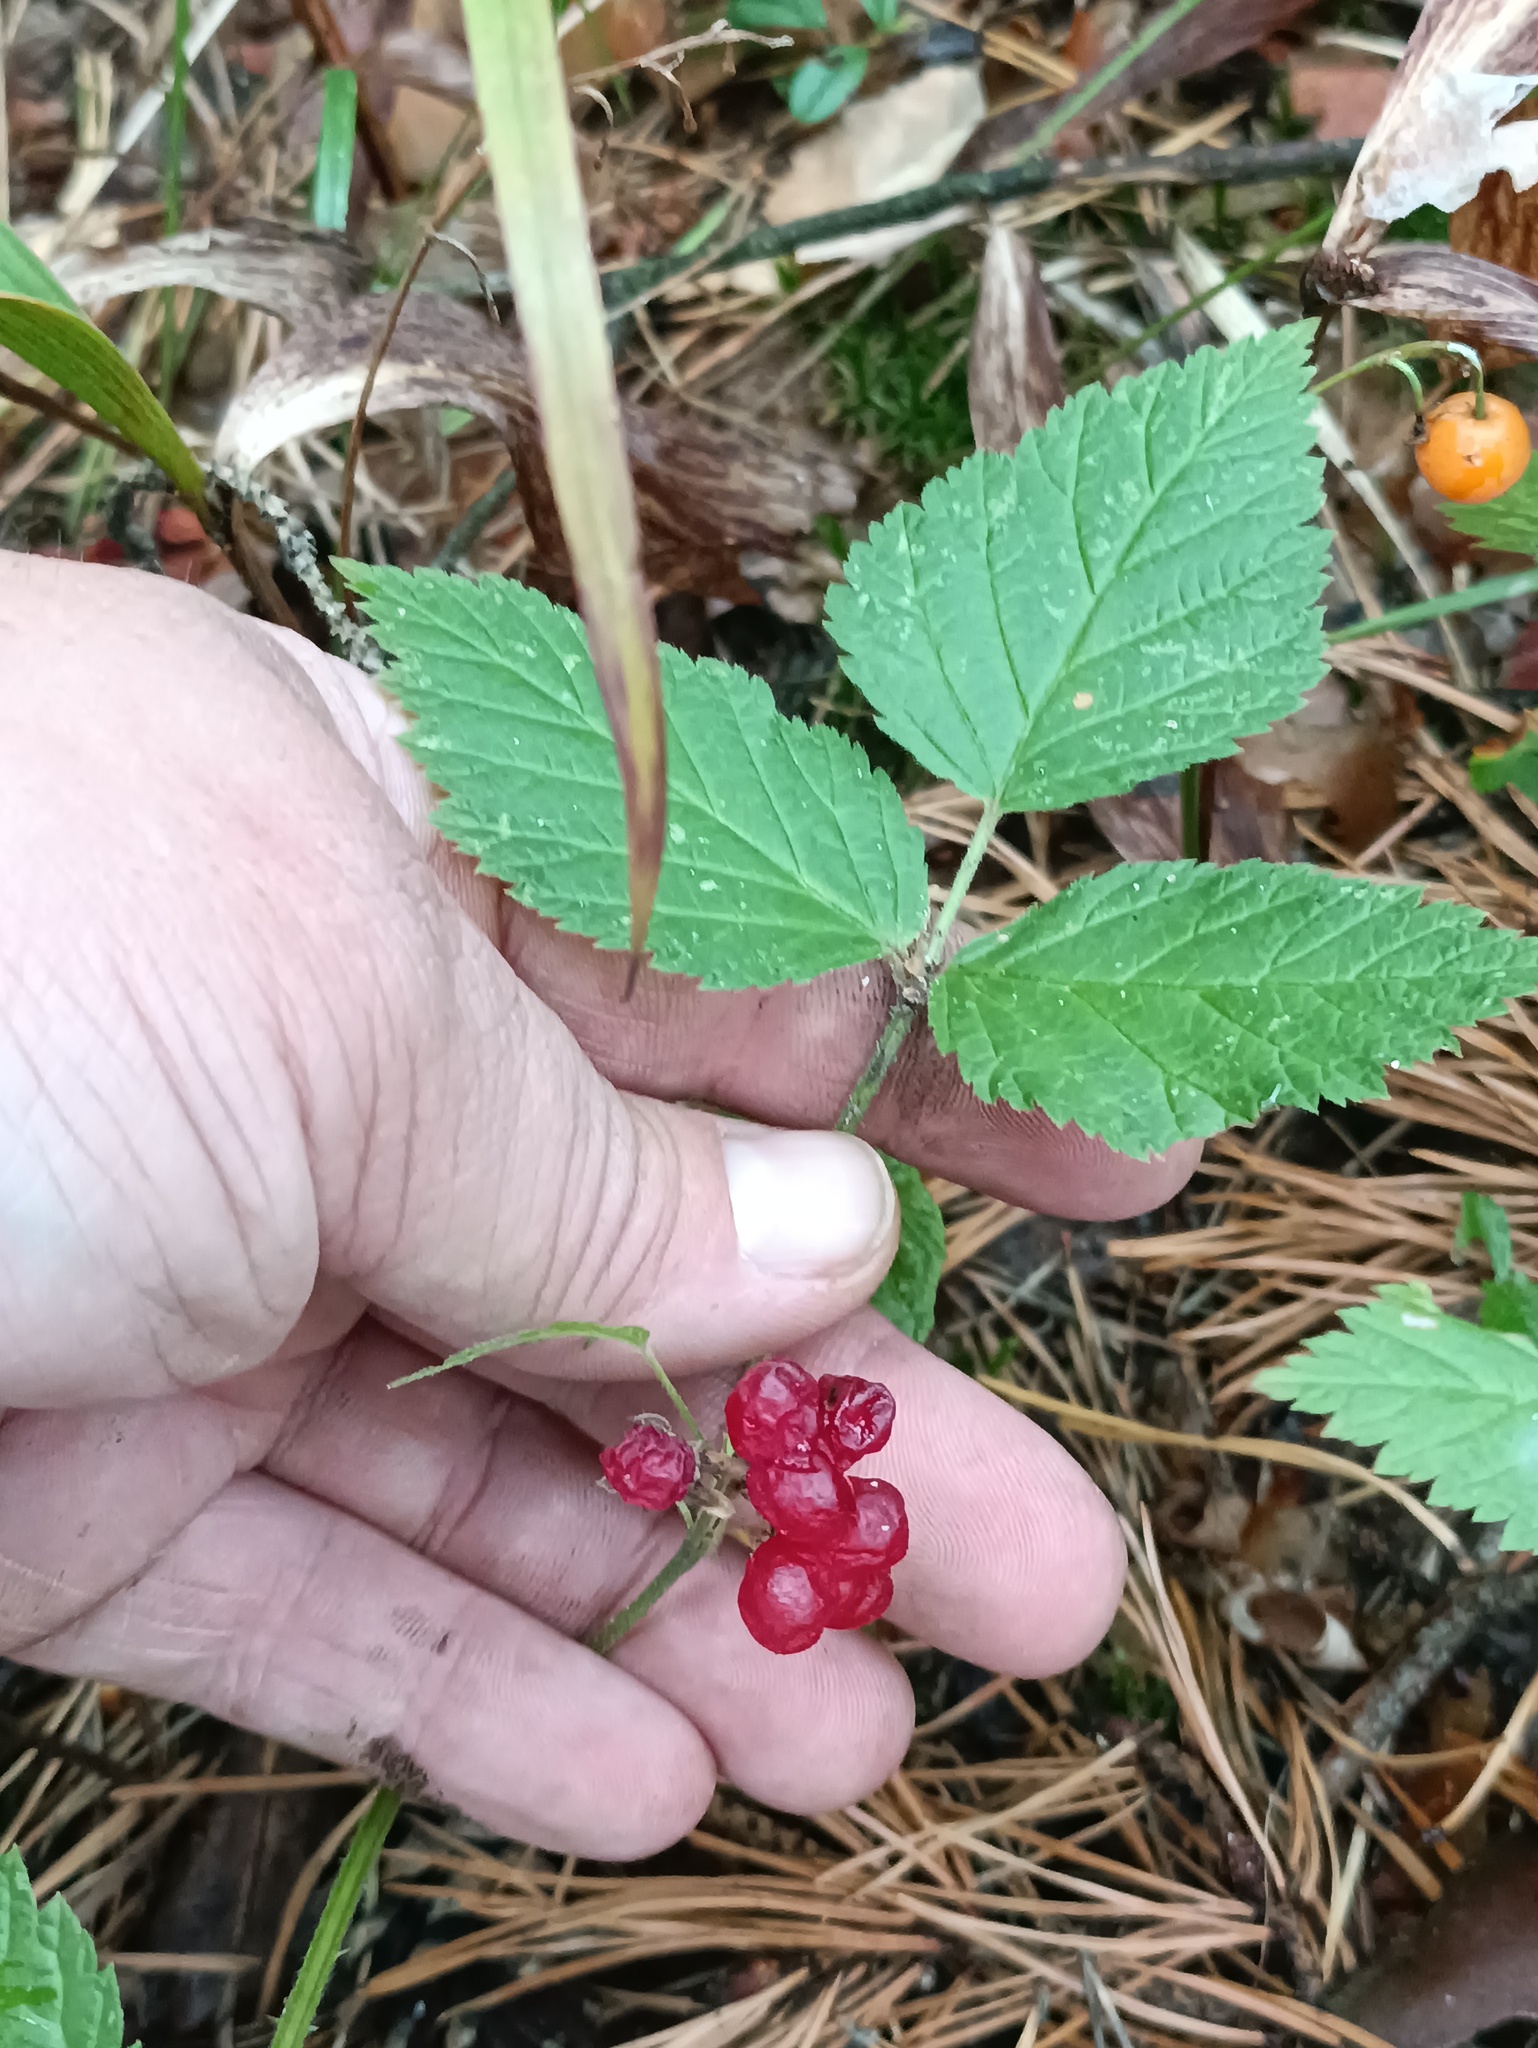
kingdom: Plantae
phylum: Tracheophyta
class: Magnoliopsida
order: Rosales
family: Rosaceae
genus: Rubus
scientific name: Rubus saxatilis
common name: Stone bramble
